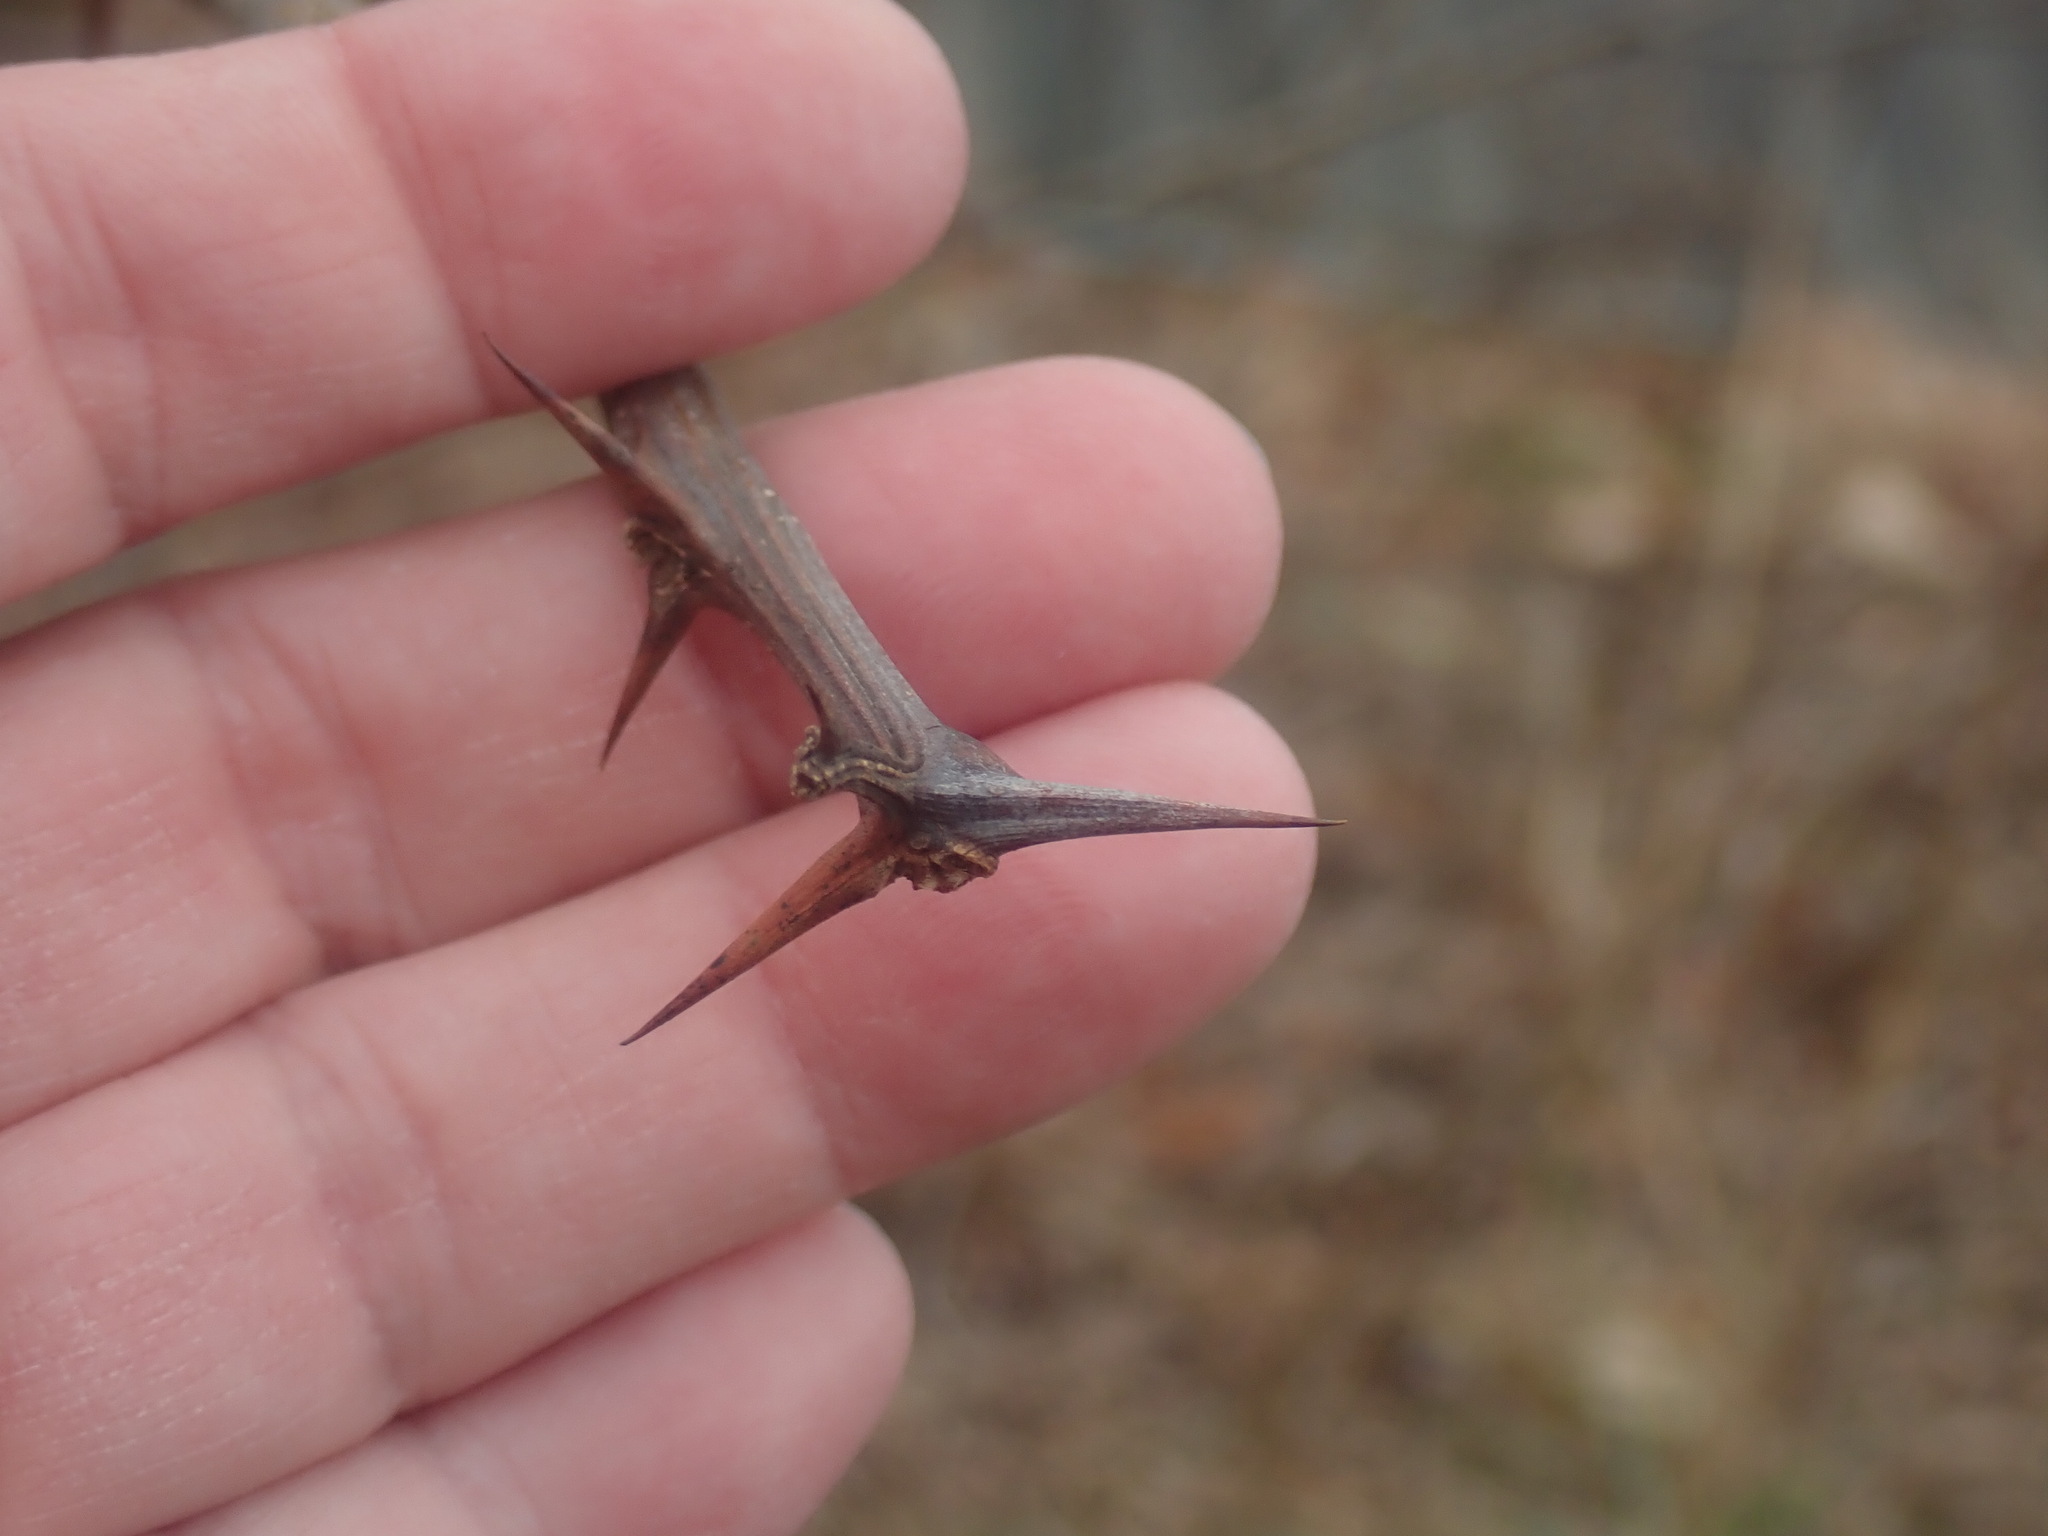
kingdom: Plantae
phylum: Tracheophyta
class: Magnoliopsida
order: Fabales
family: Fabaceae
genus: Robinia
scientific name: Robinia pseudoacacia
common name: Black locust
